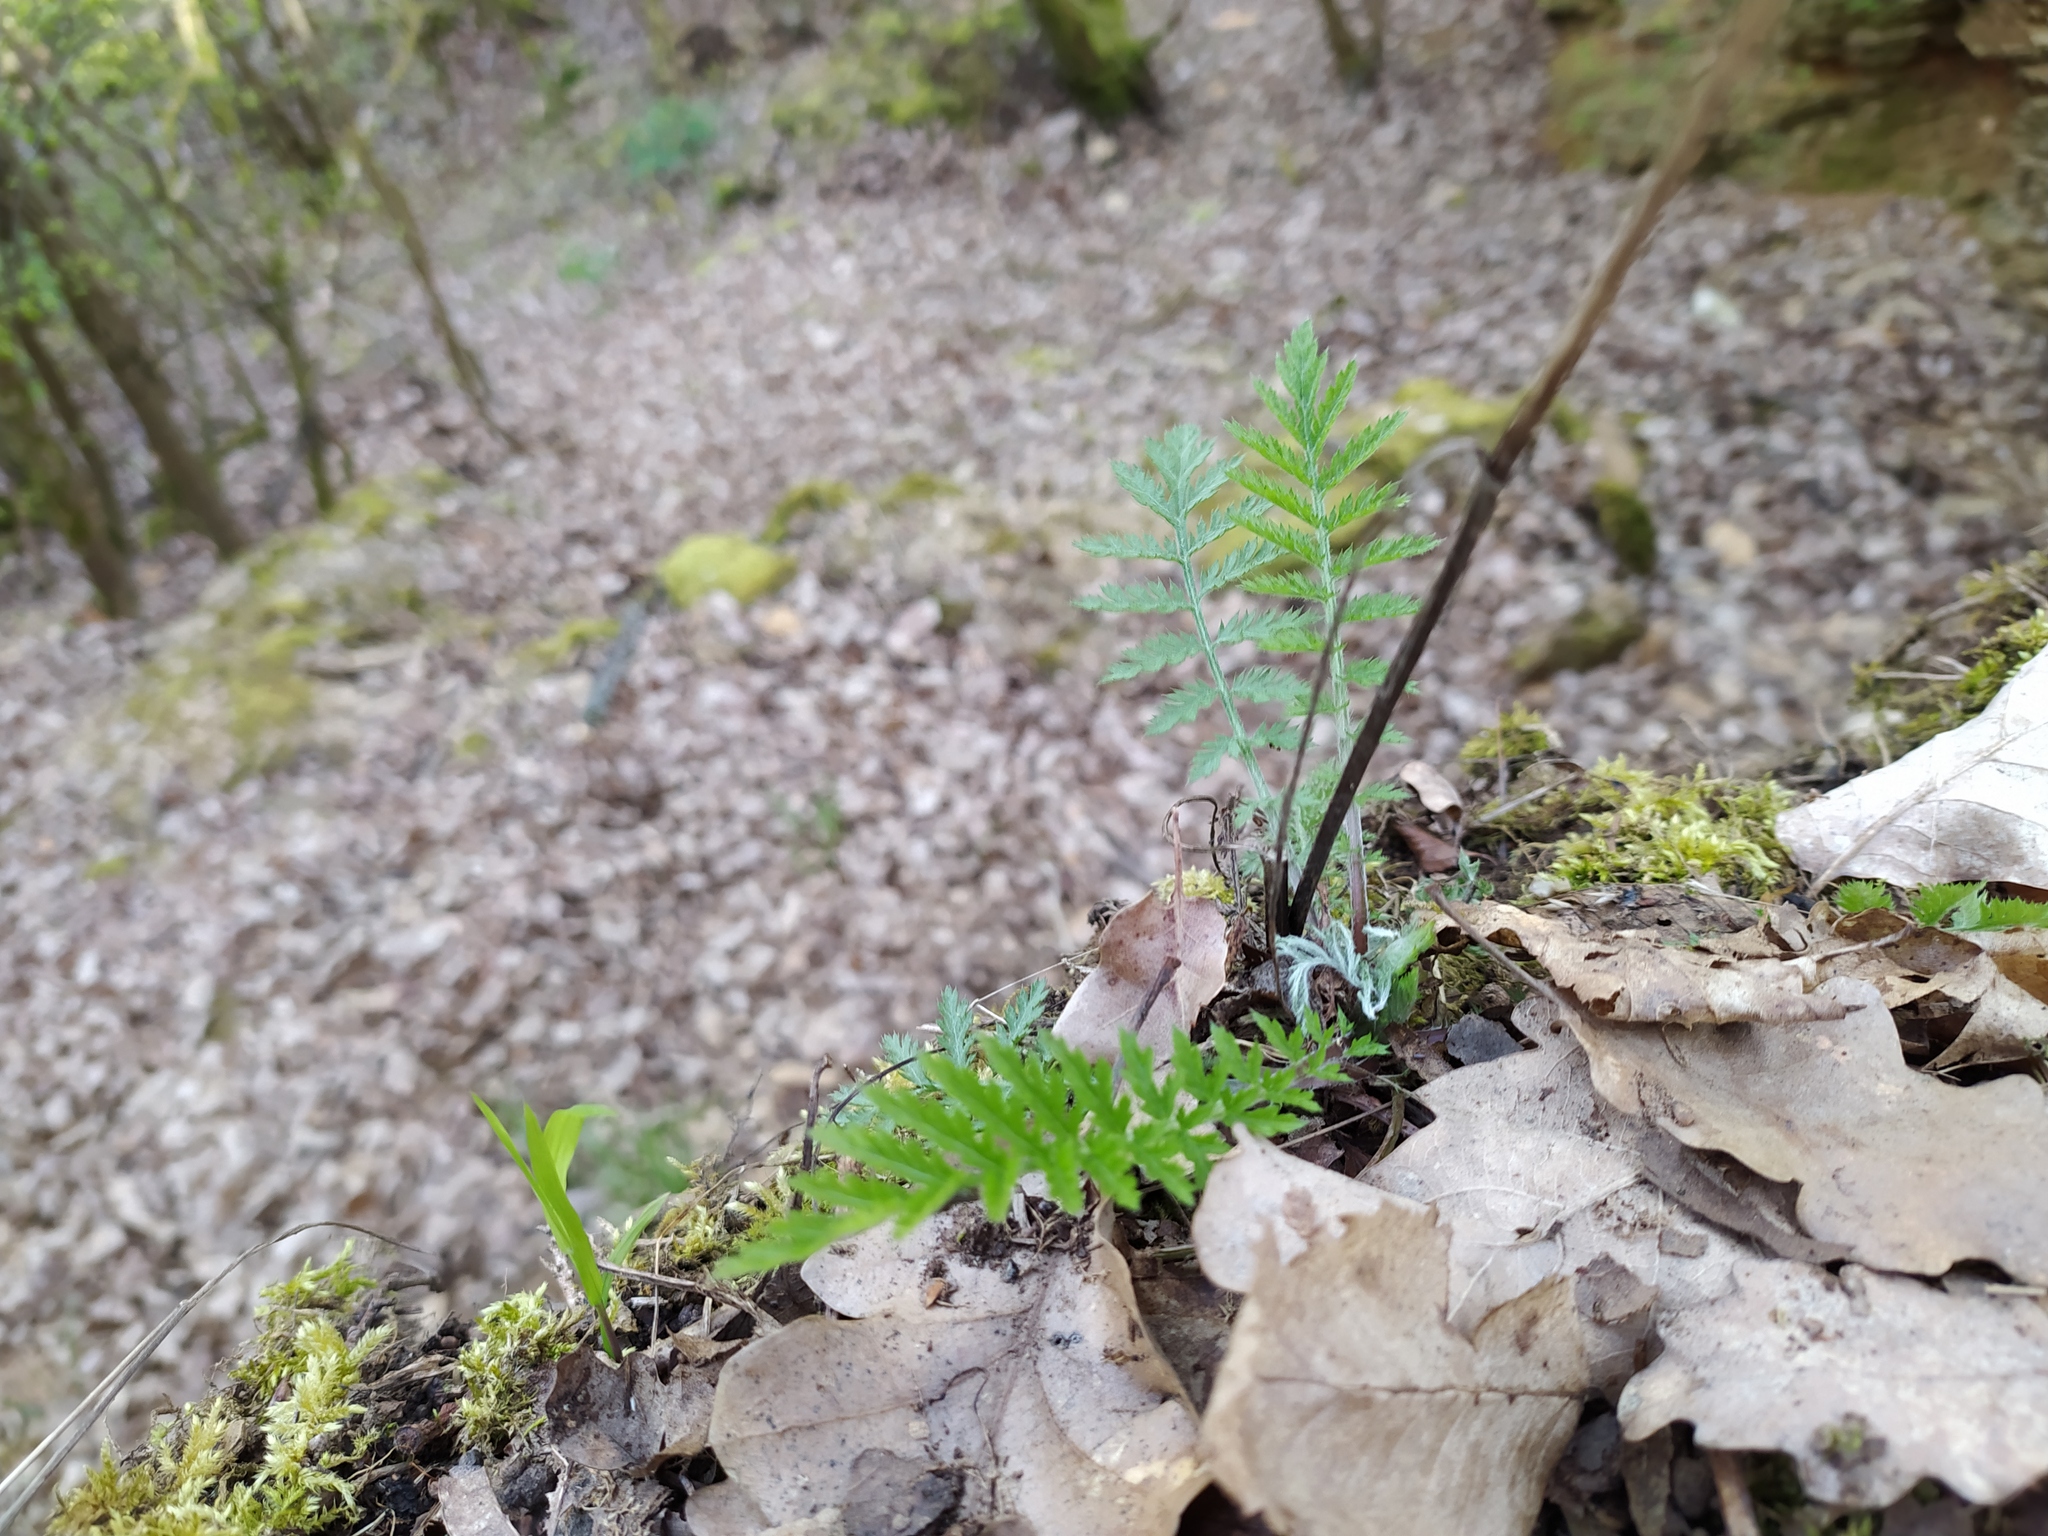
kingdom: Plantae
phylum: Tracheophyta
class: Magnoliopsida
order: Asterales
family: Asteraceae
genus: Tanacetum
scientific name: Tanacetum corymbosum
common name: Scentless feverfew
